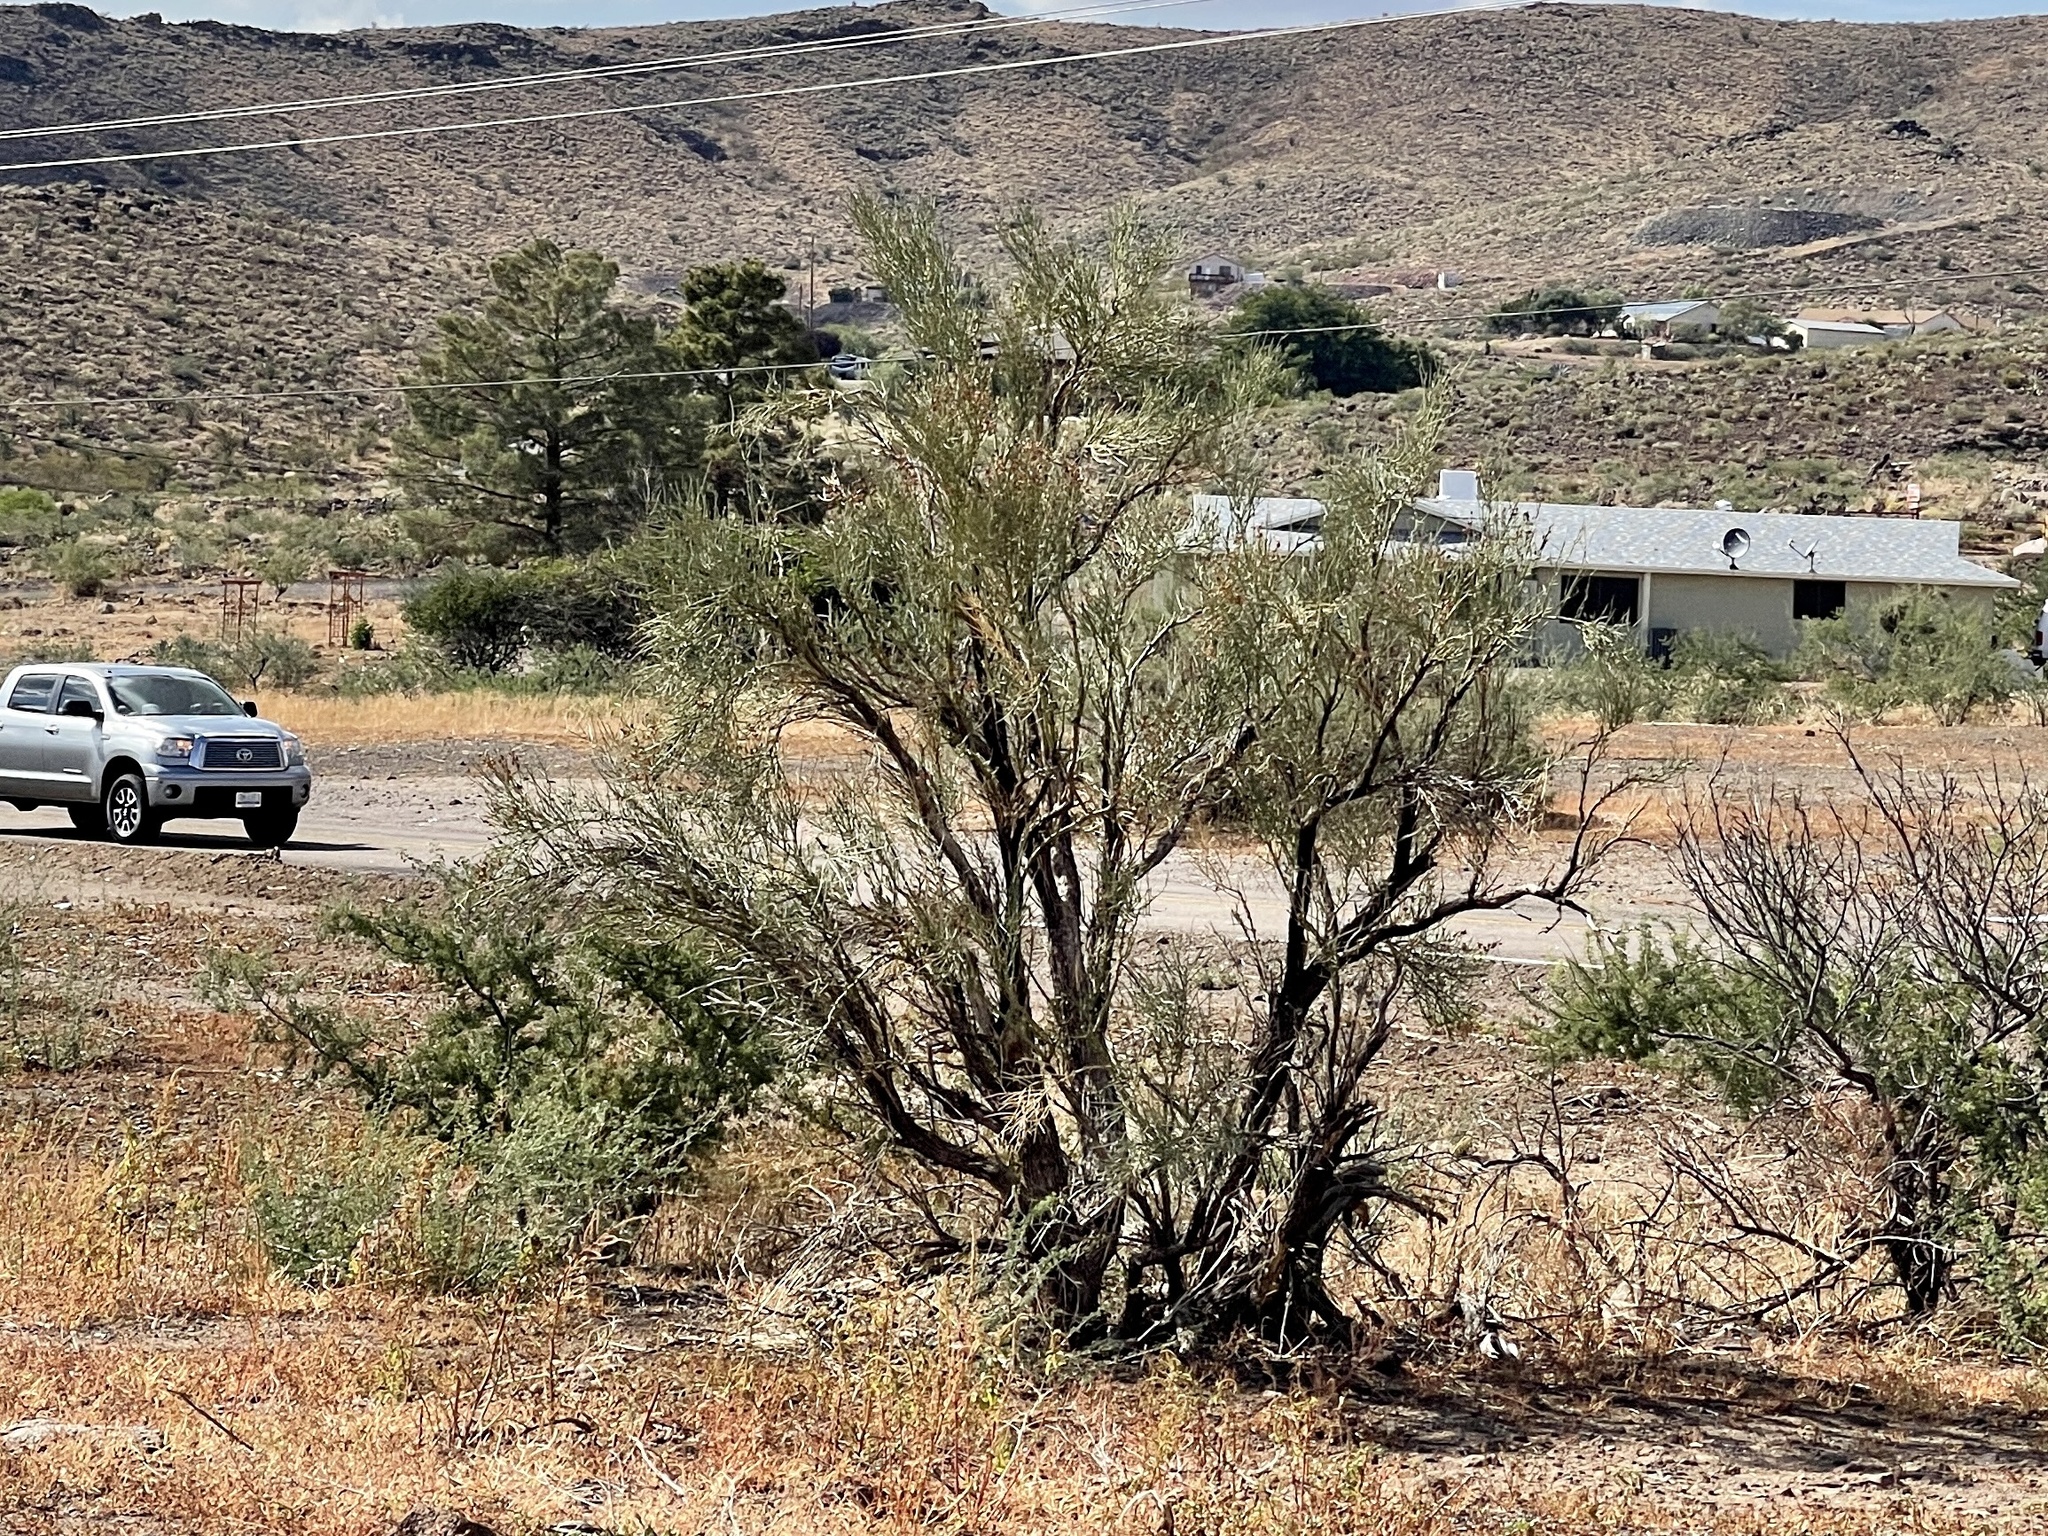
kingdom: Plantae
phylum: Tracheophyta
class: Magnoliopsida
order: Celastrales
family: Celastraceae
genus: Canotia
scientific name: Canotia holacantha
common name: Crucifixion thorns
